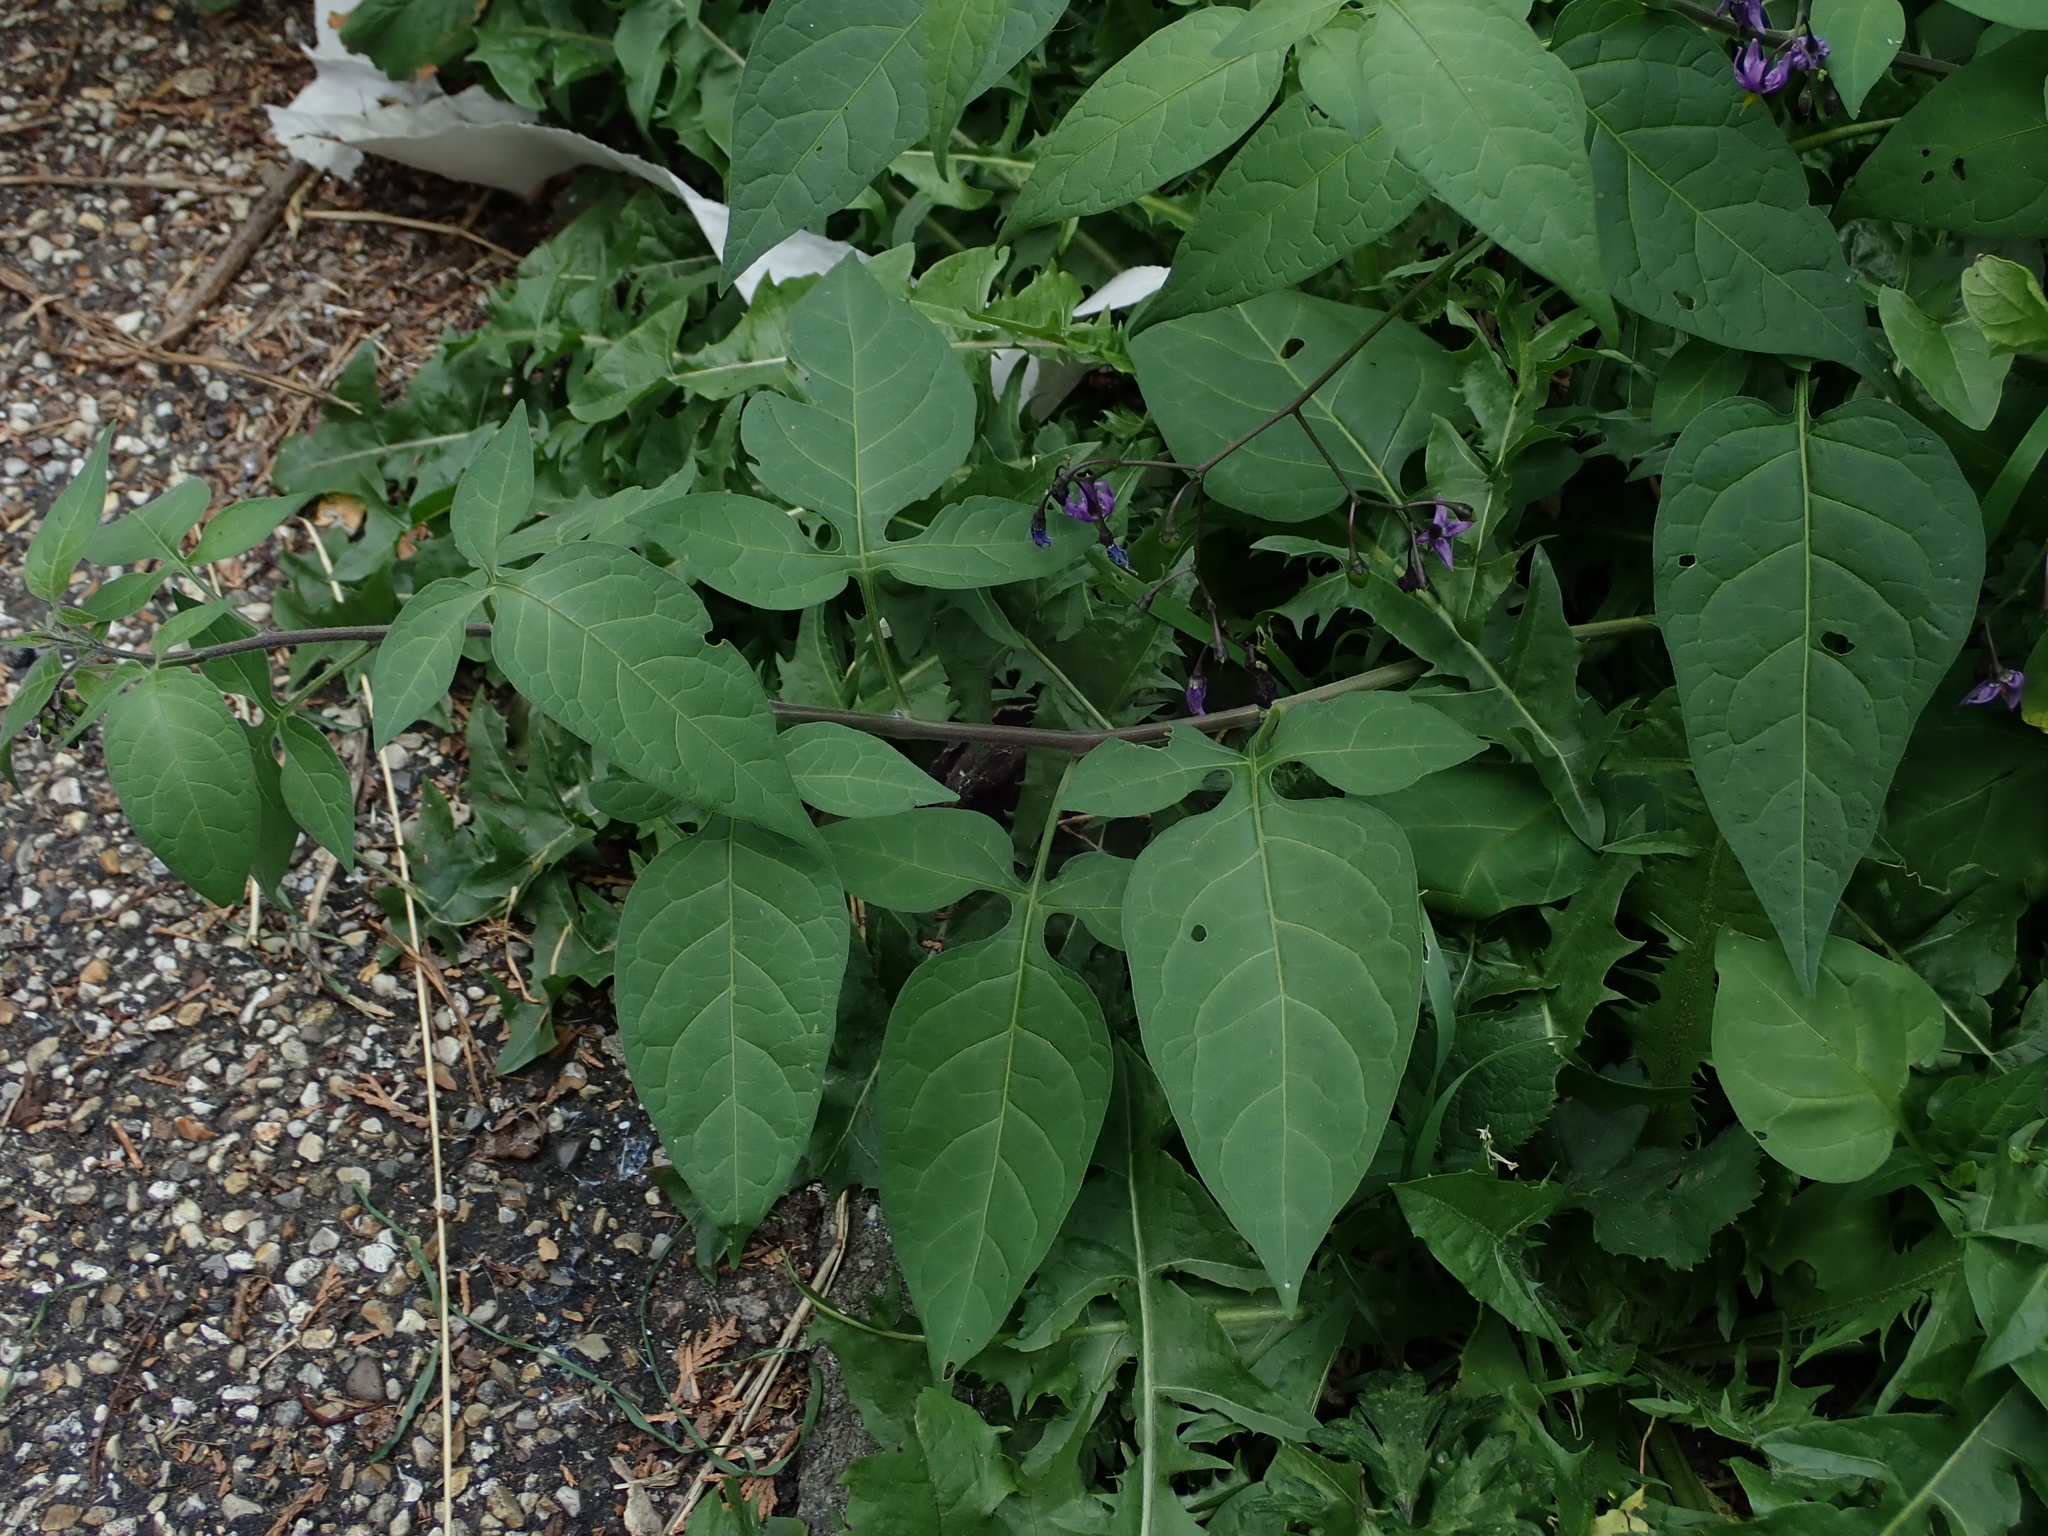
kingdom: Plantae
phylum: Tracheophyta
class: Magnoliopsida
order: Solanales
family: Solanaceae
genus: Solanum
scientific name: Solanum dulcamara
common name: Climbing nightshade
